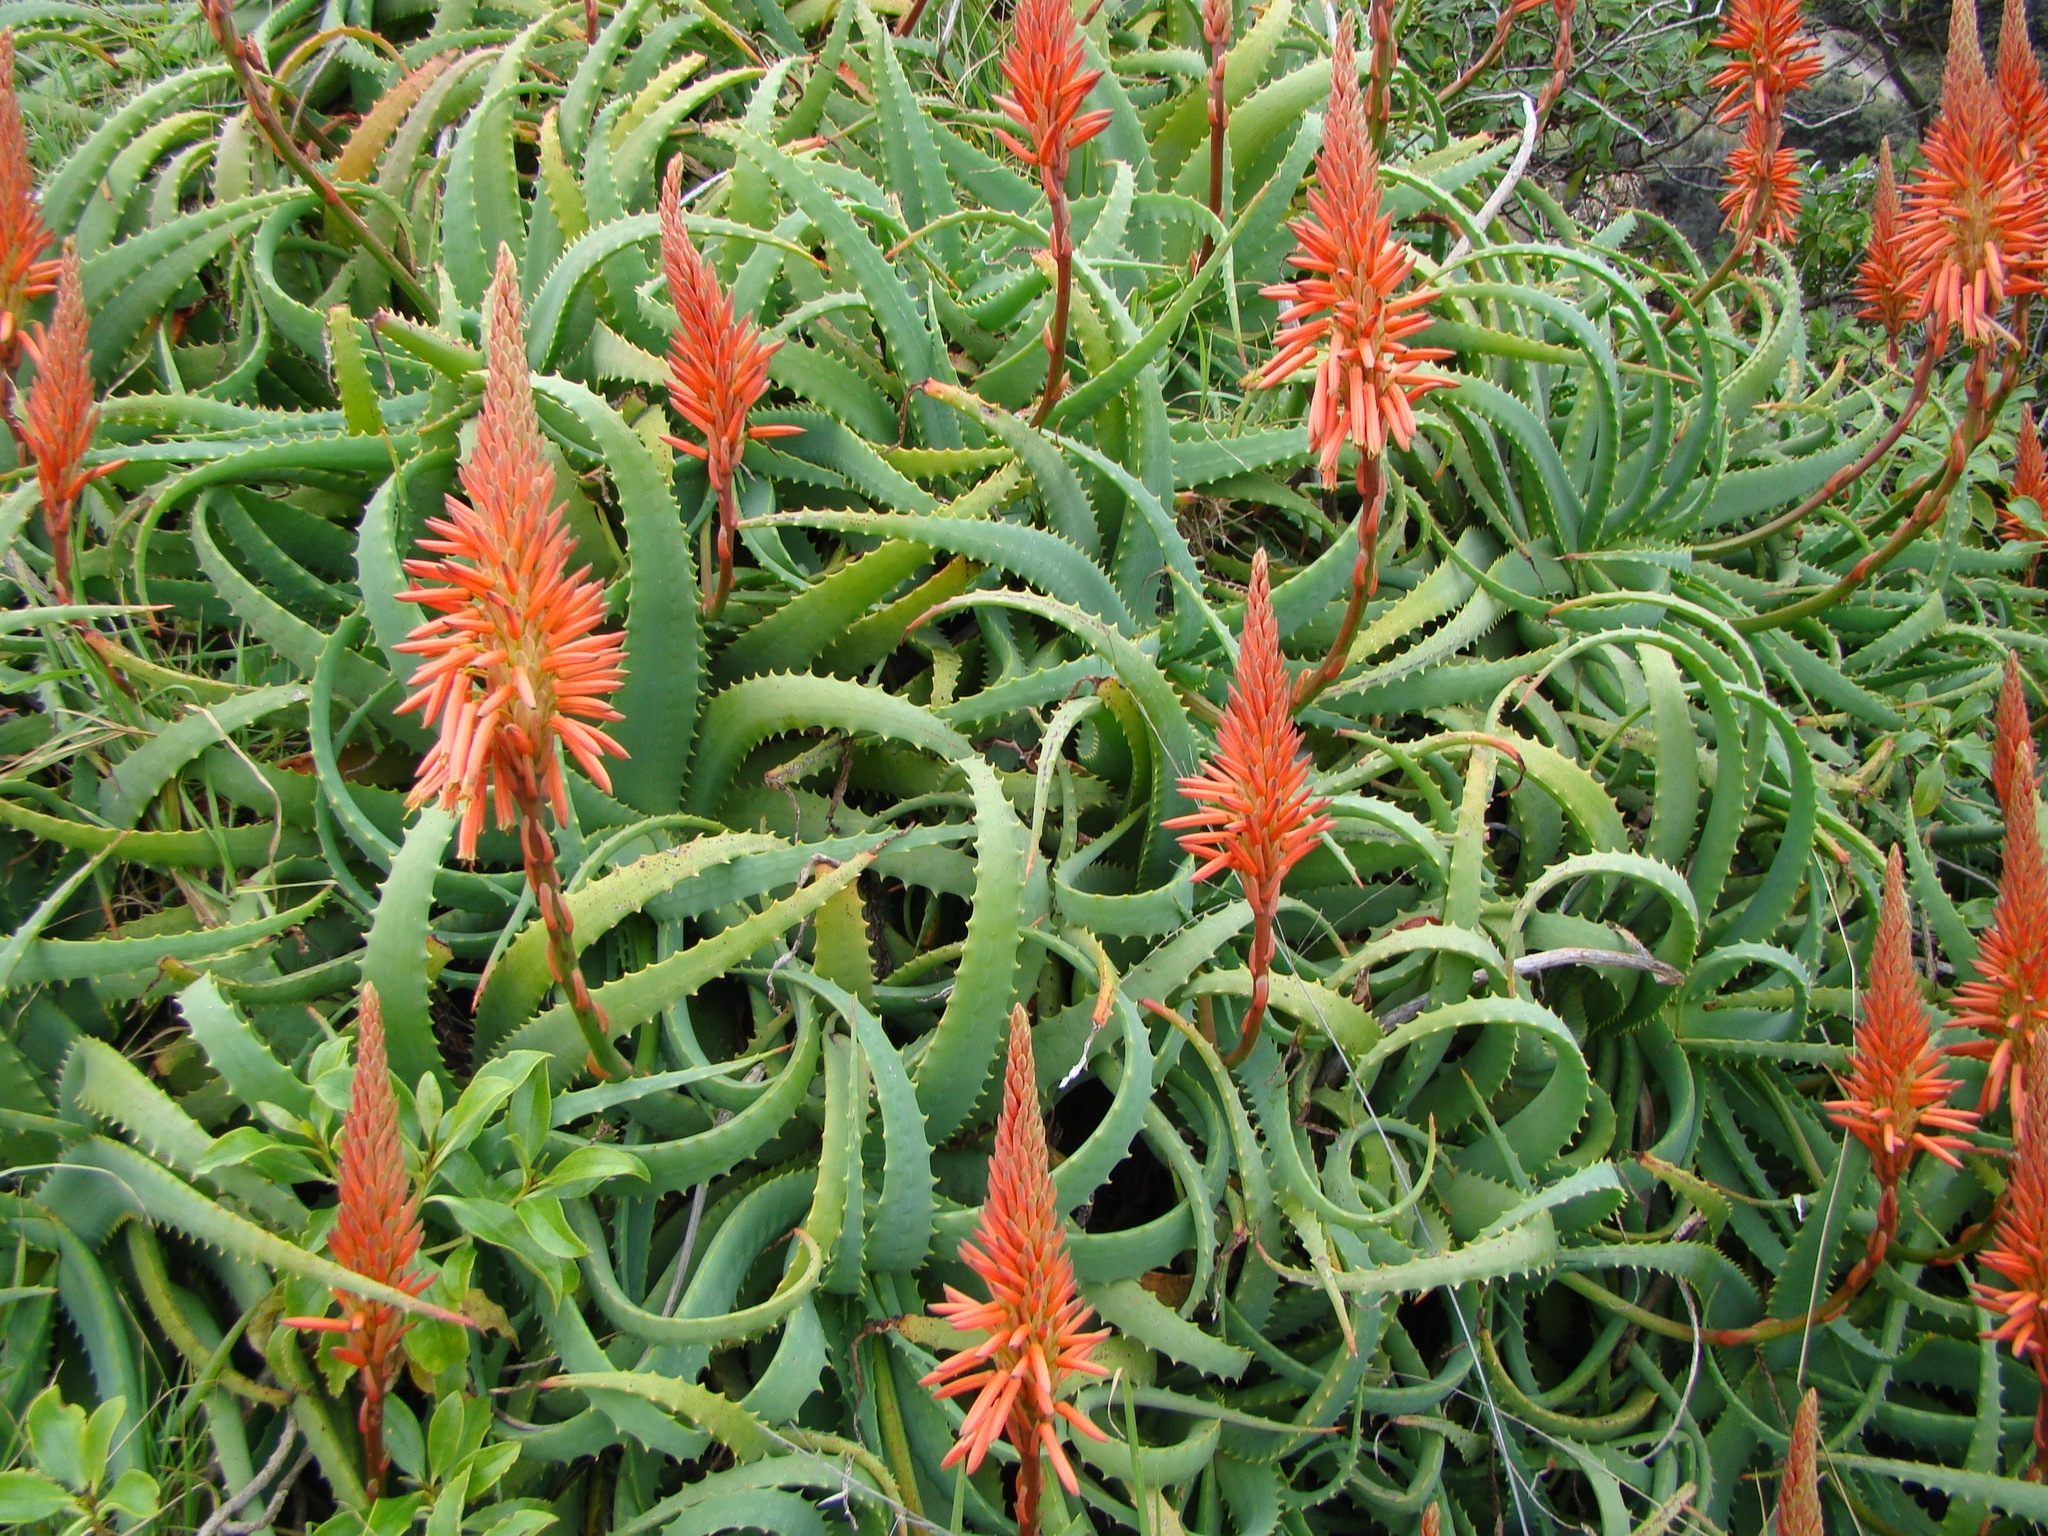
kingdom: Plantae
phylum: Tracheophyta
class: Liliopsida
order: Asparagales
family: Asphodelaceae
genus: Aloe
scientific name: Aloe arborescens
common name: Candelabra aloe
